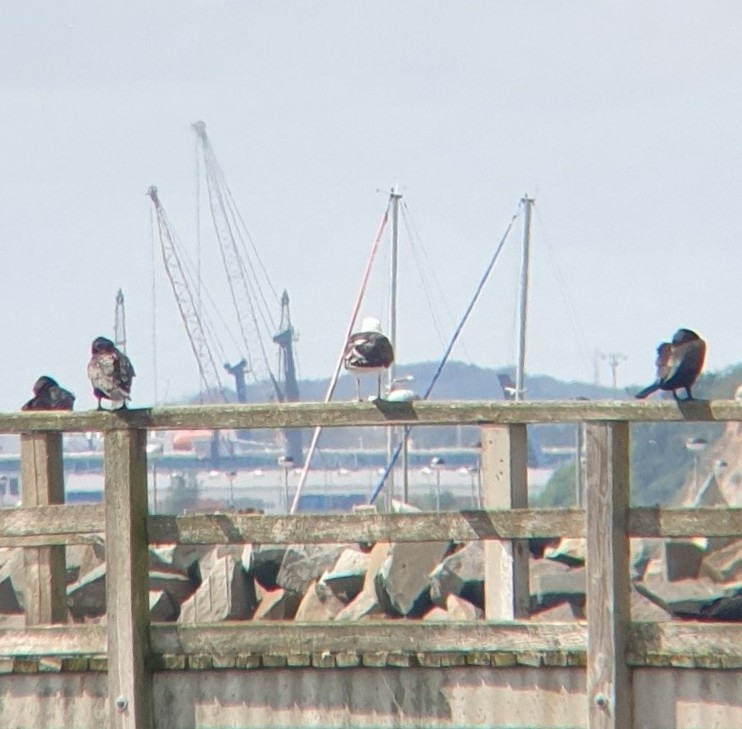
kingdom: Animalia
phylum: Chordata
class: Aves
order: Charadriiformes
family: Laridae
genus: Larus
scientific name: Larus marinus
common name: Great black-backed gull
